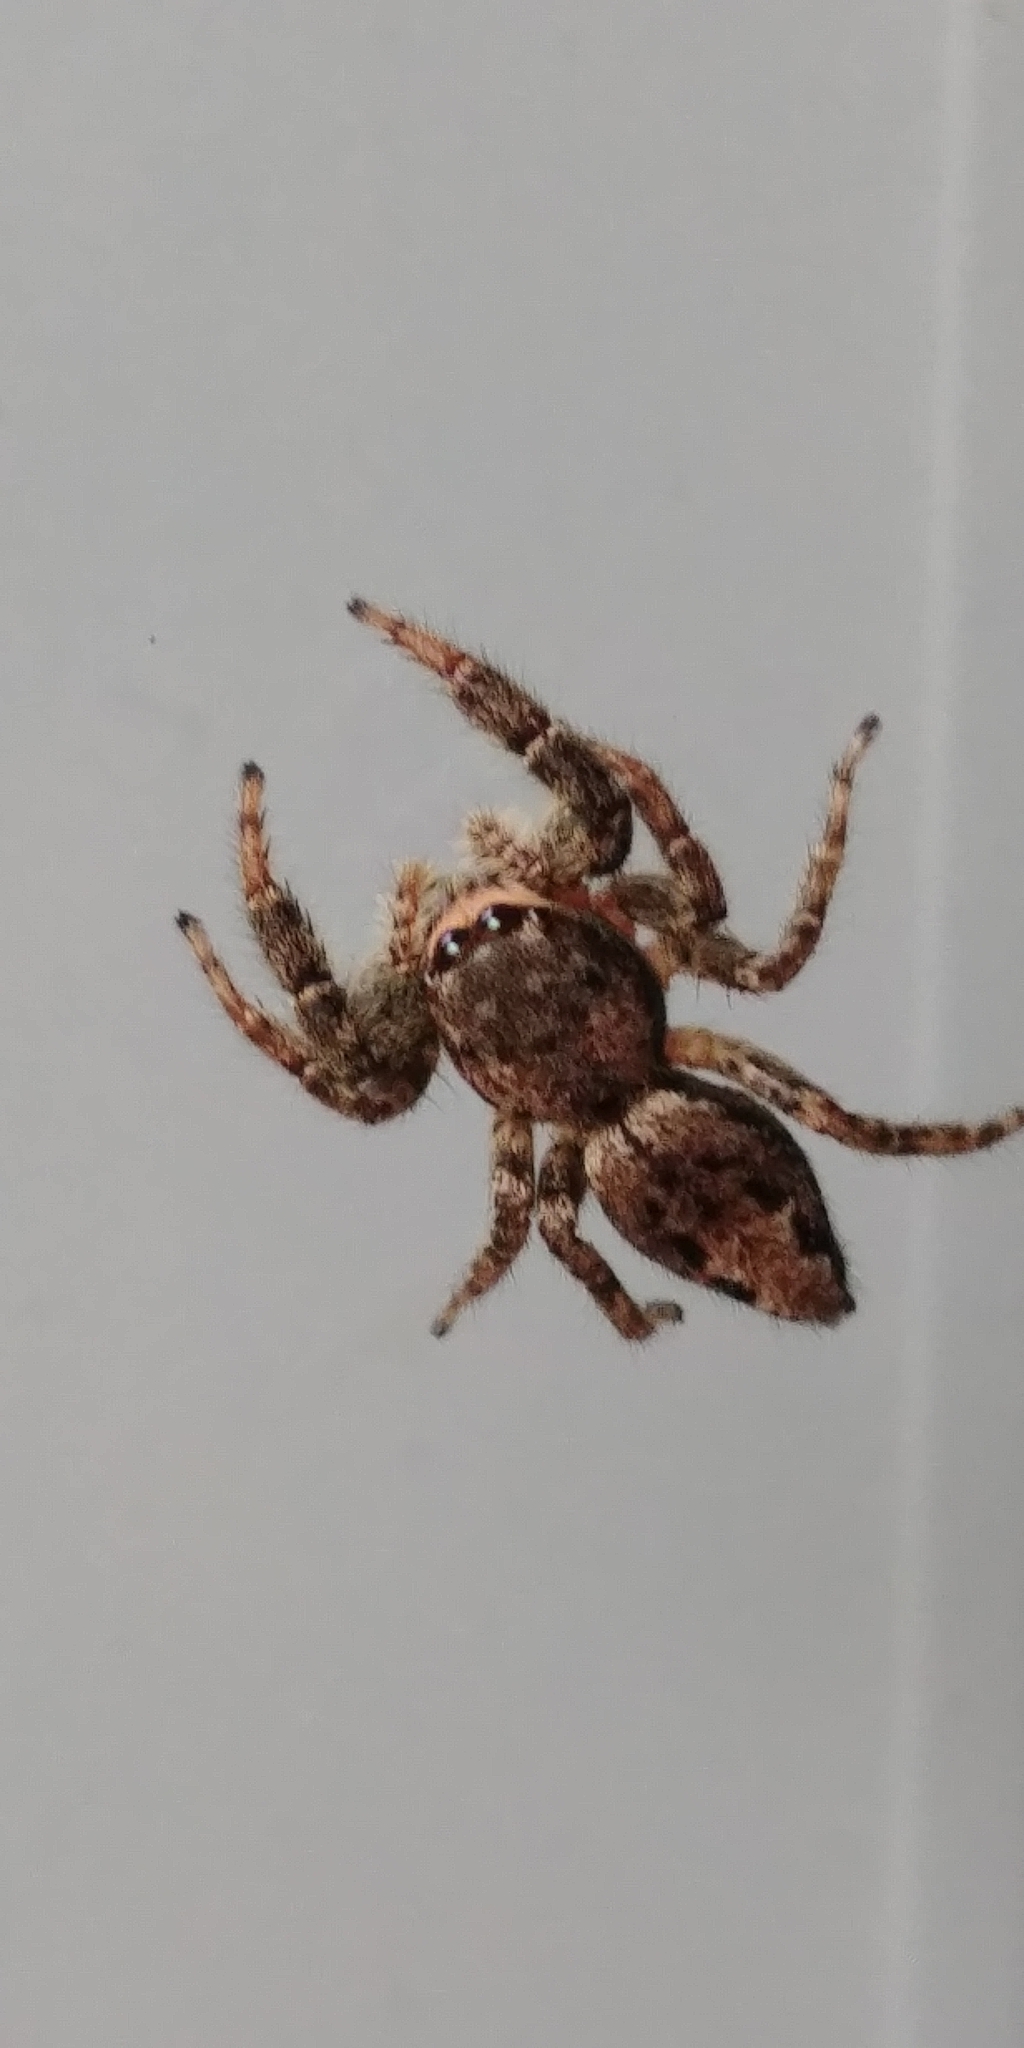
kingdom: Animalia
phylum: Arthropoda
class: Arachnida
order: Araneae
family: Salticidae
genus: Marpissa
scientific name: Marpissa muscosa
